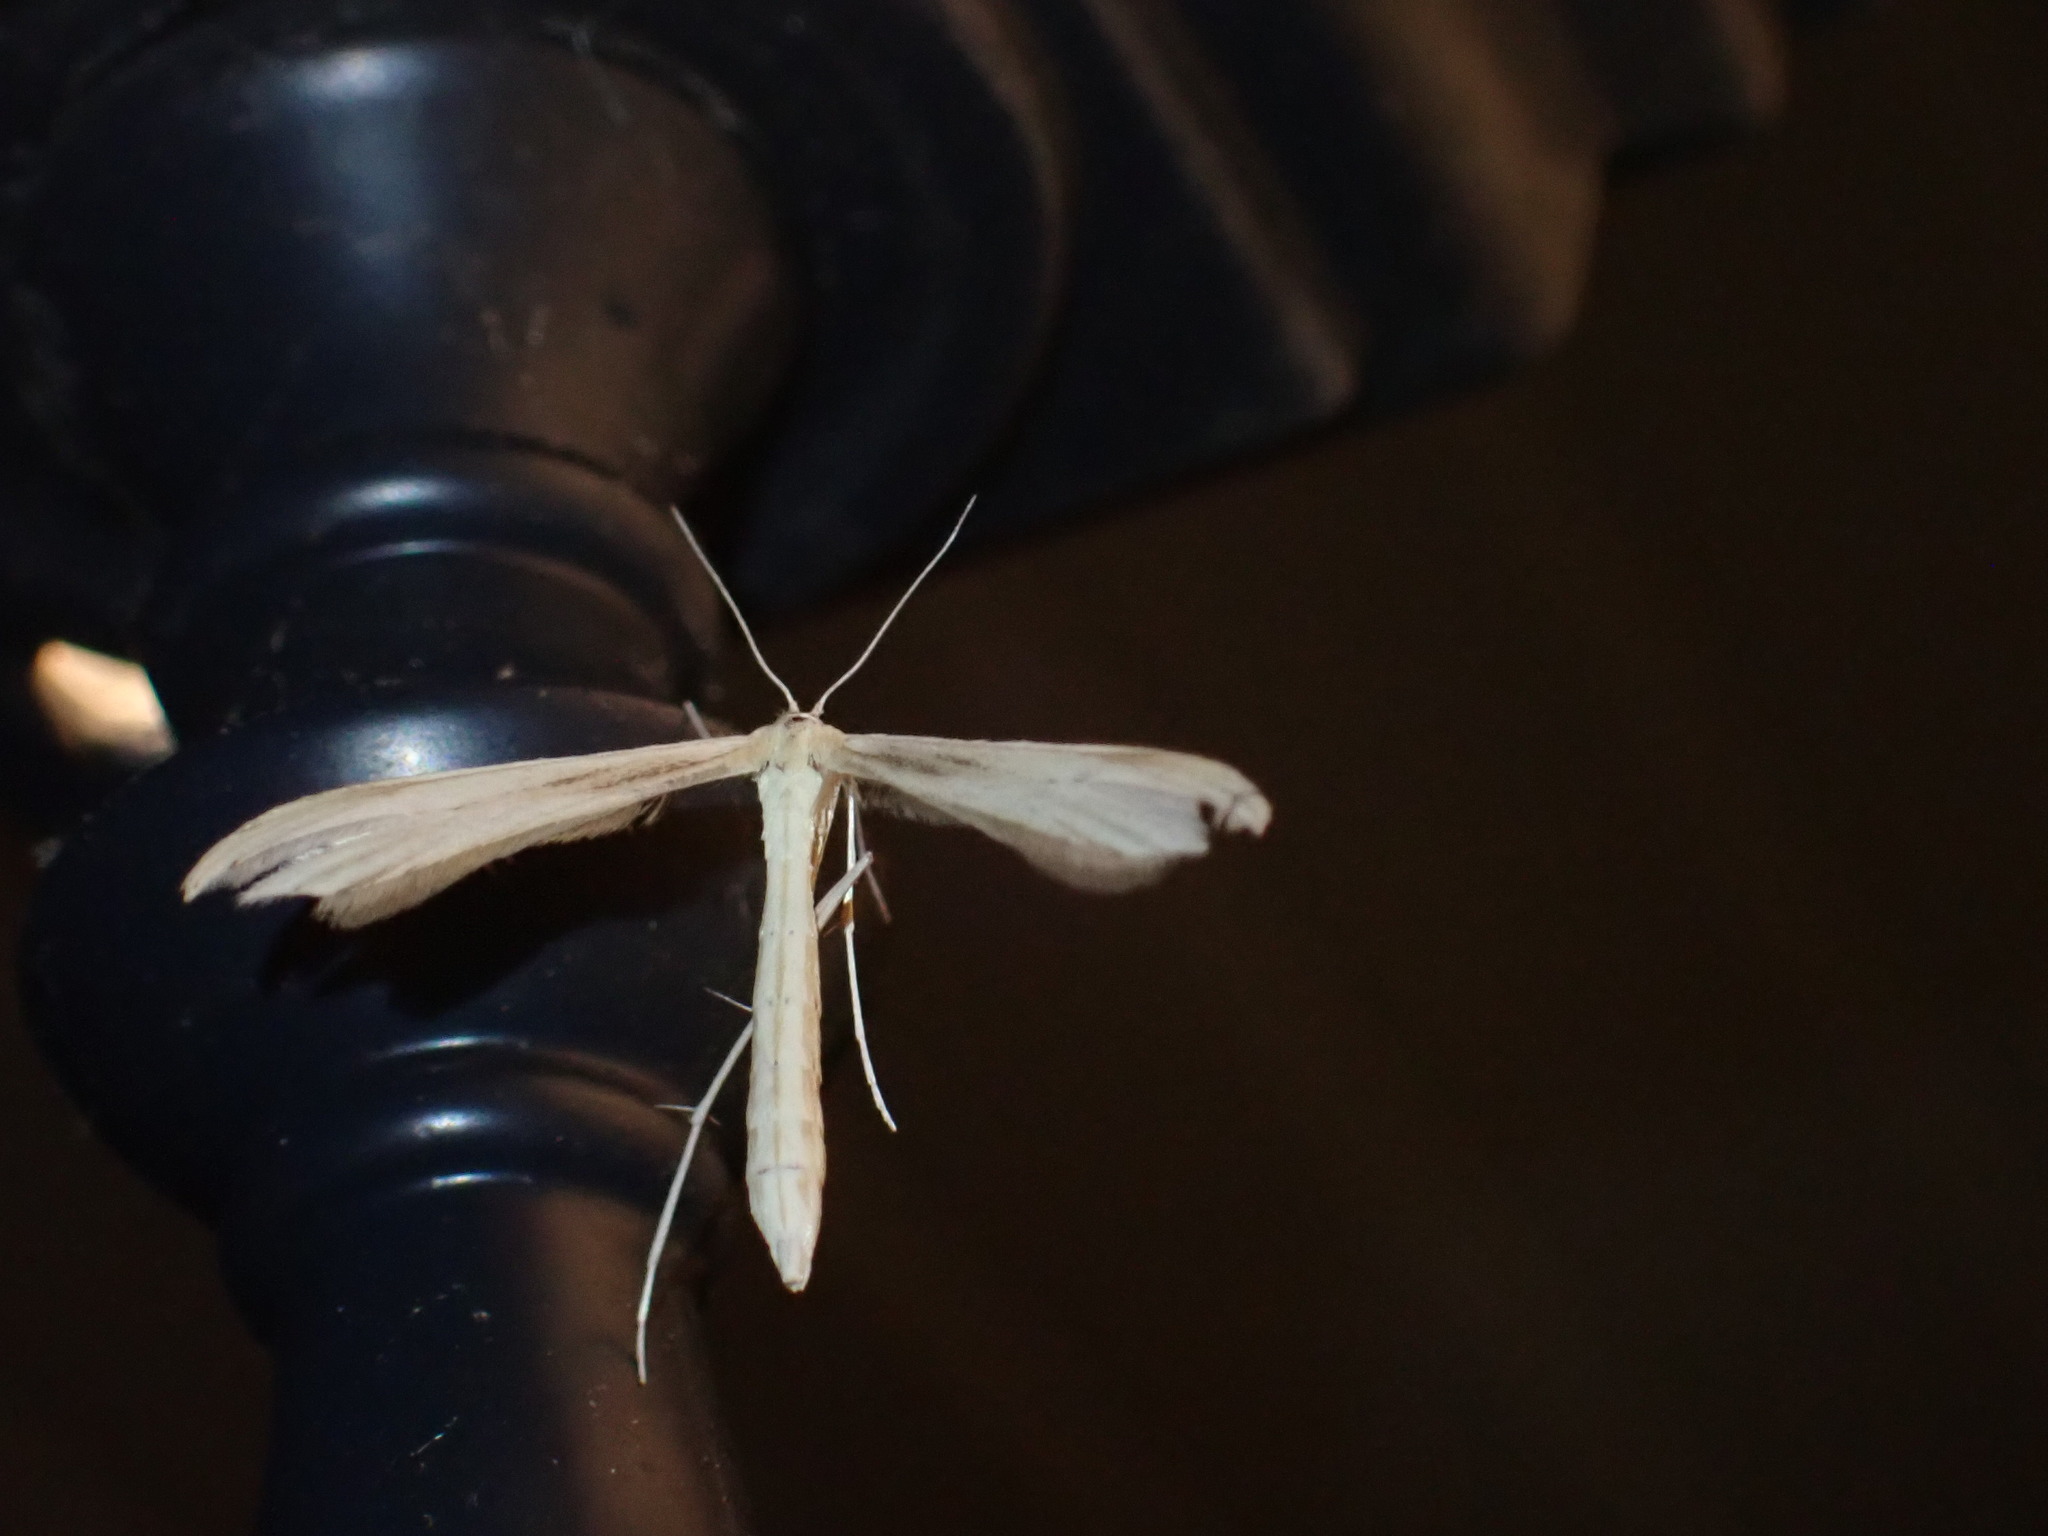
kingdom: Animalia
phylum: Arthropoda
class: Insecta
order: Lepidoptera
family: Pterophoridae
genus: Hellinsia
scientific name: Hellinsia
